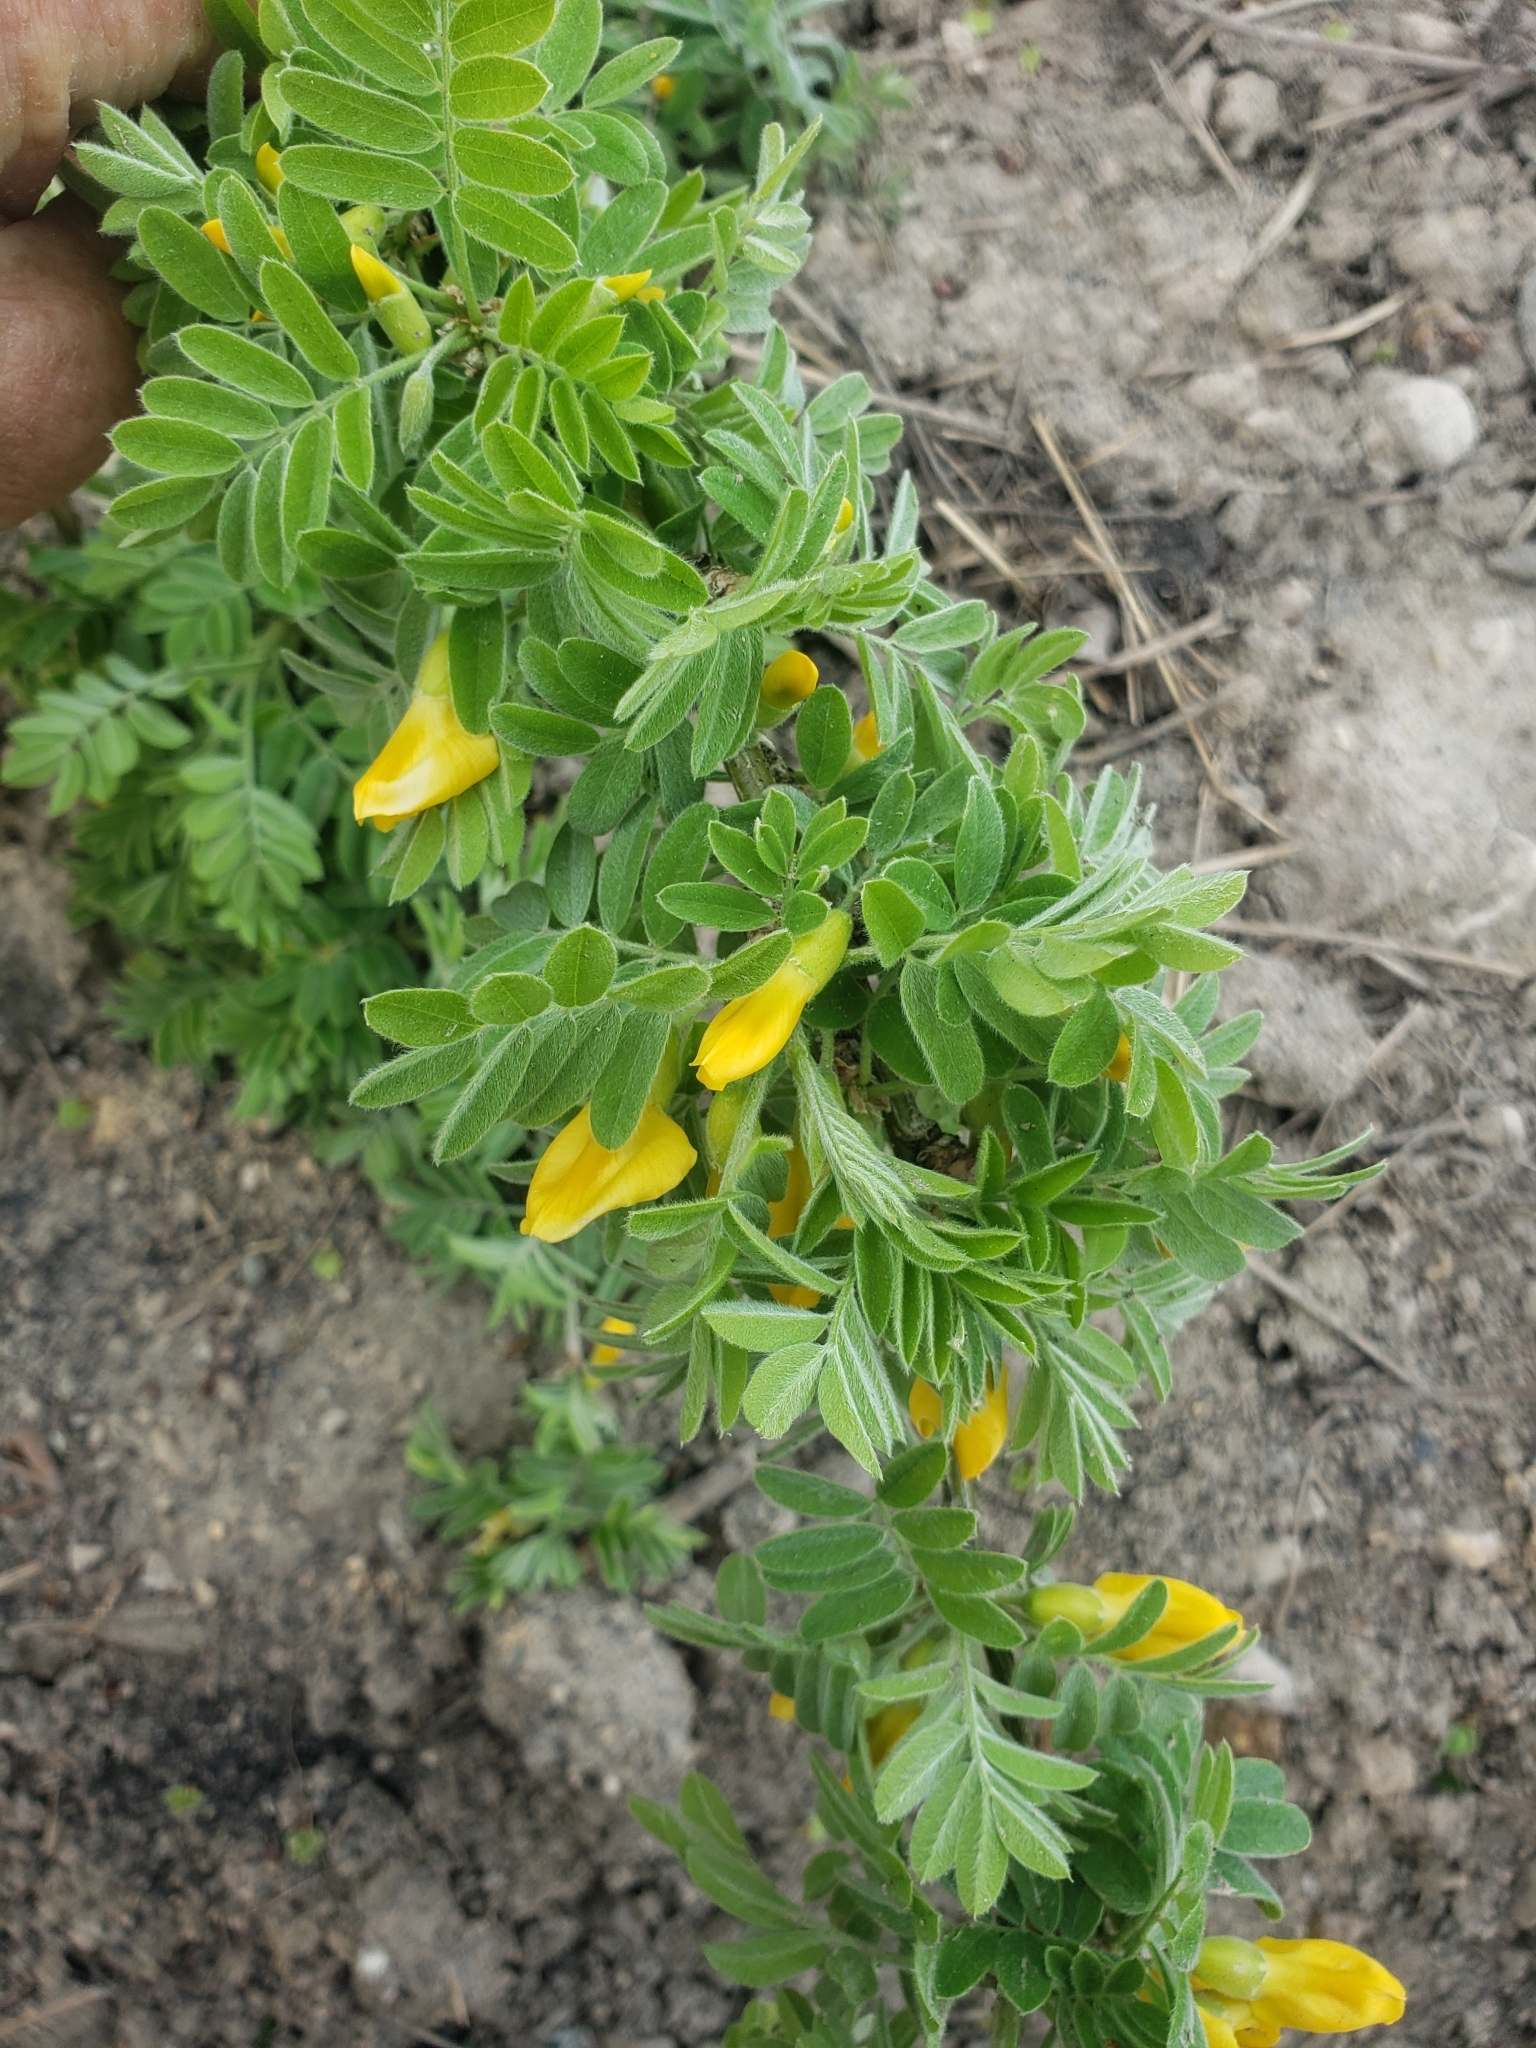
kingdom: Plantae
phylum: Tracheophyta
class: Magnoliopsida
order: Fabales
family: Fabaceae
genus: Caragana
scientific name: Caragana arborescens
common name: Siberian peashrub
